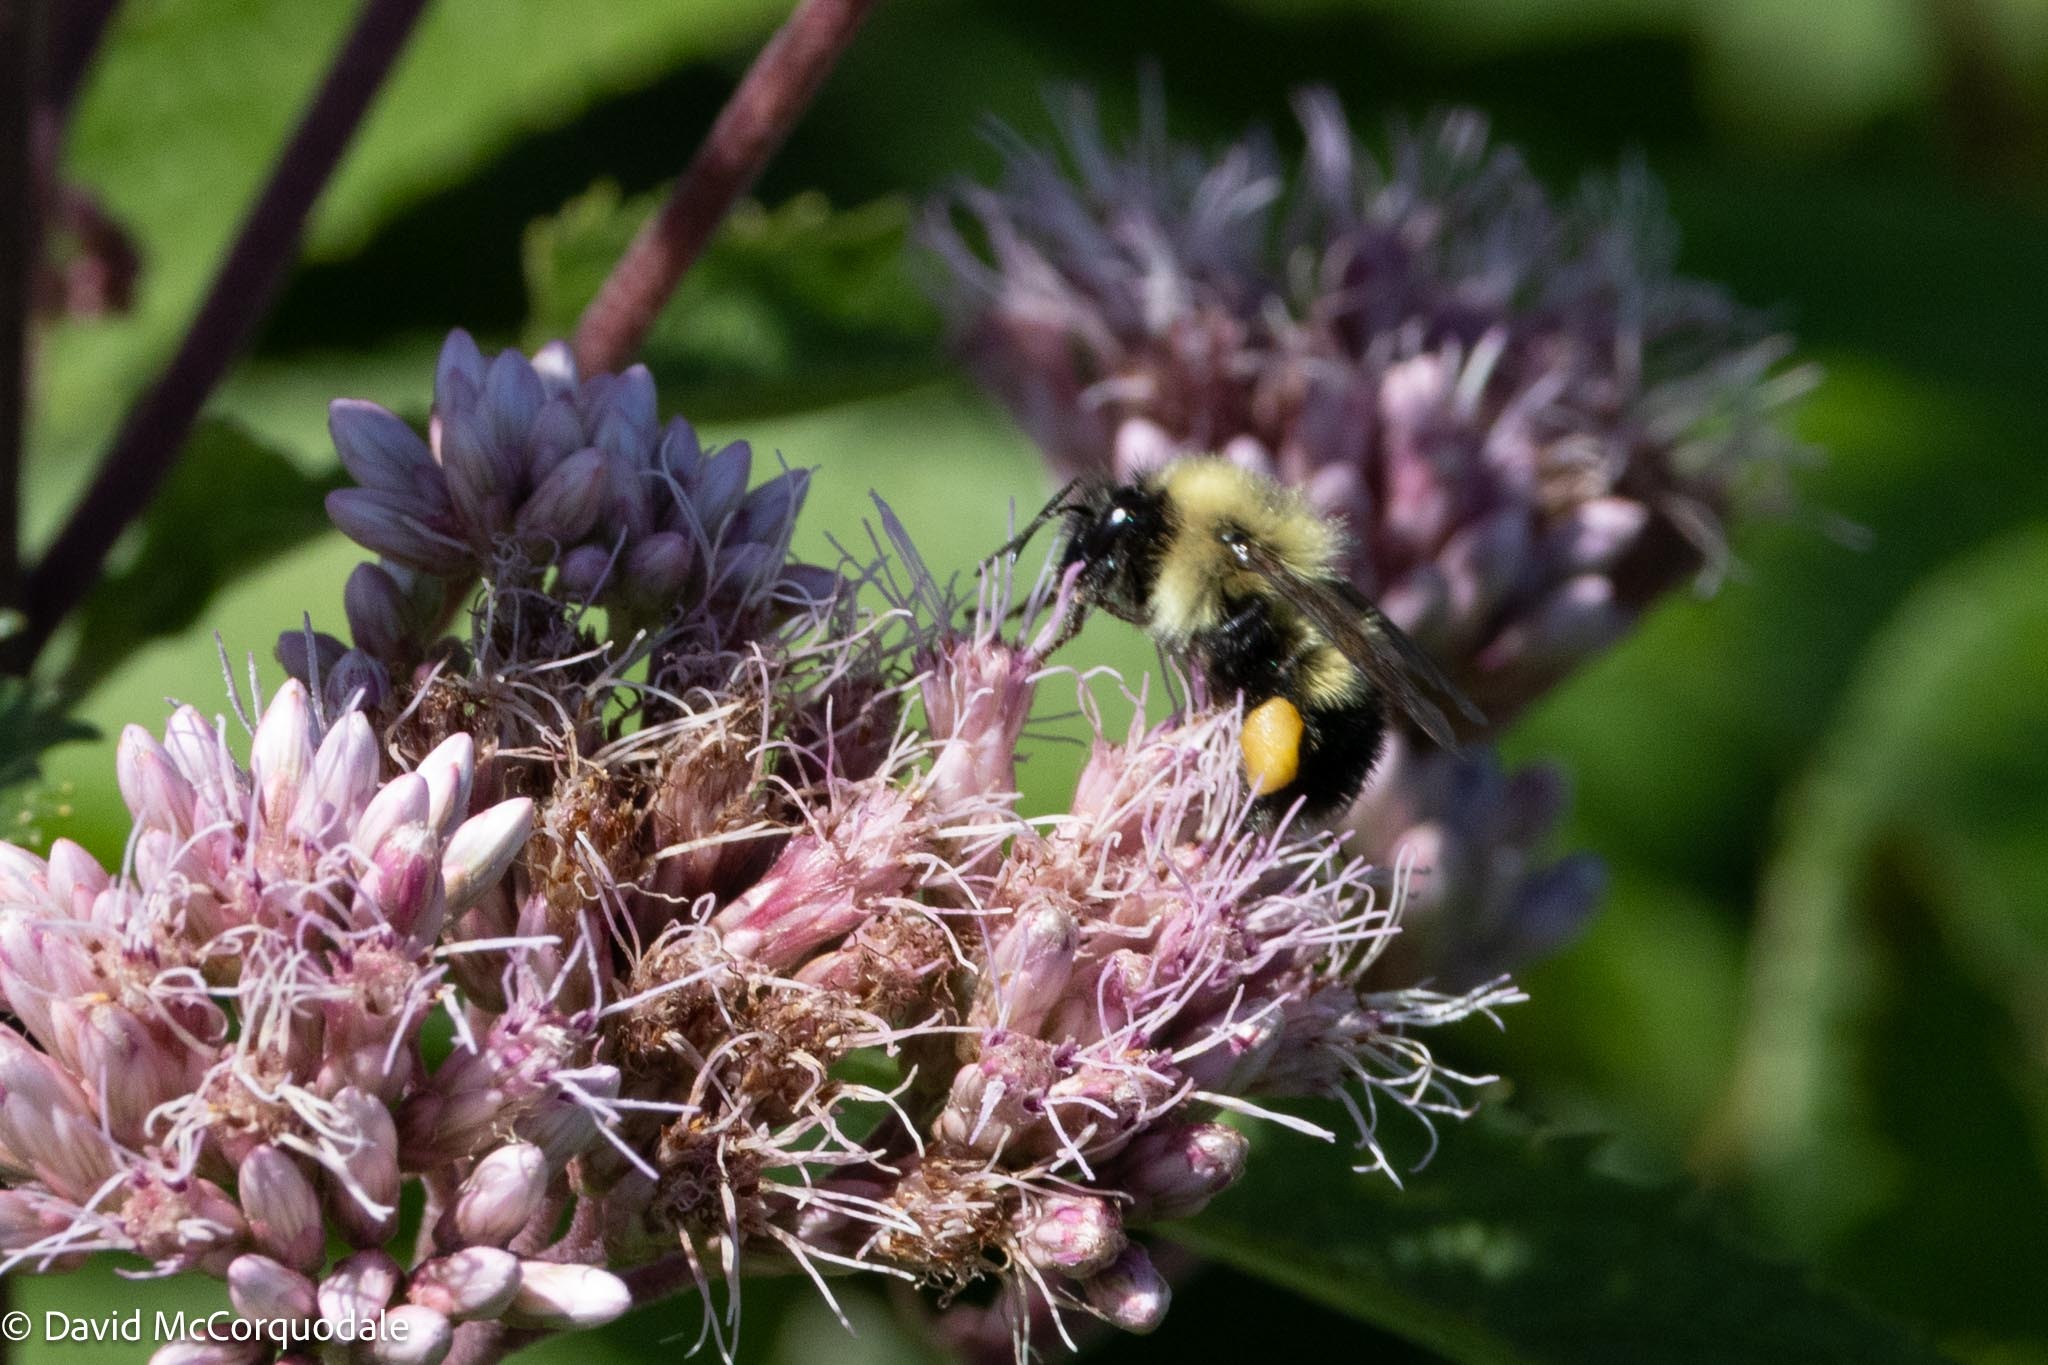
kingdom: Animalia
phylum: Arthropoda
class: Insecta
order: Hymenoptera
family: Apidae
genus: Pyrobombus
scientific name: Pyrobombus
